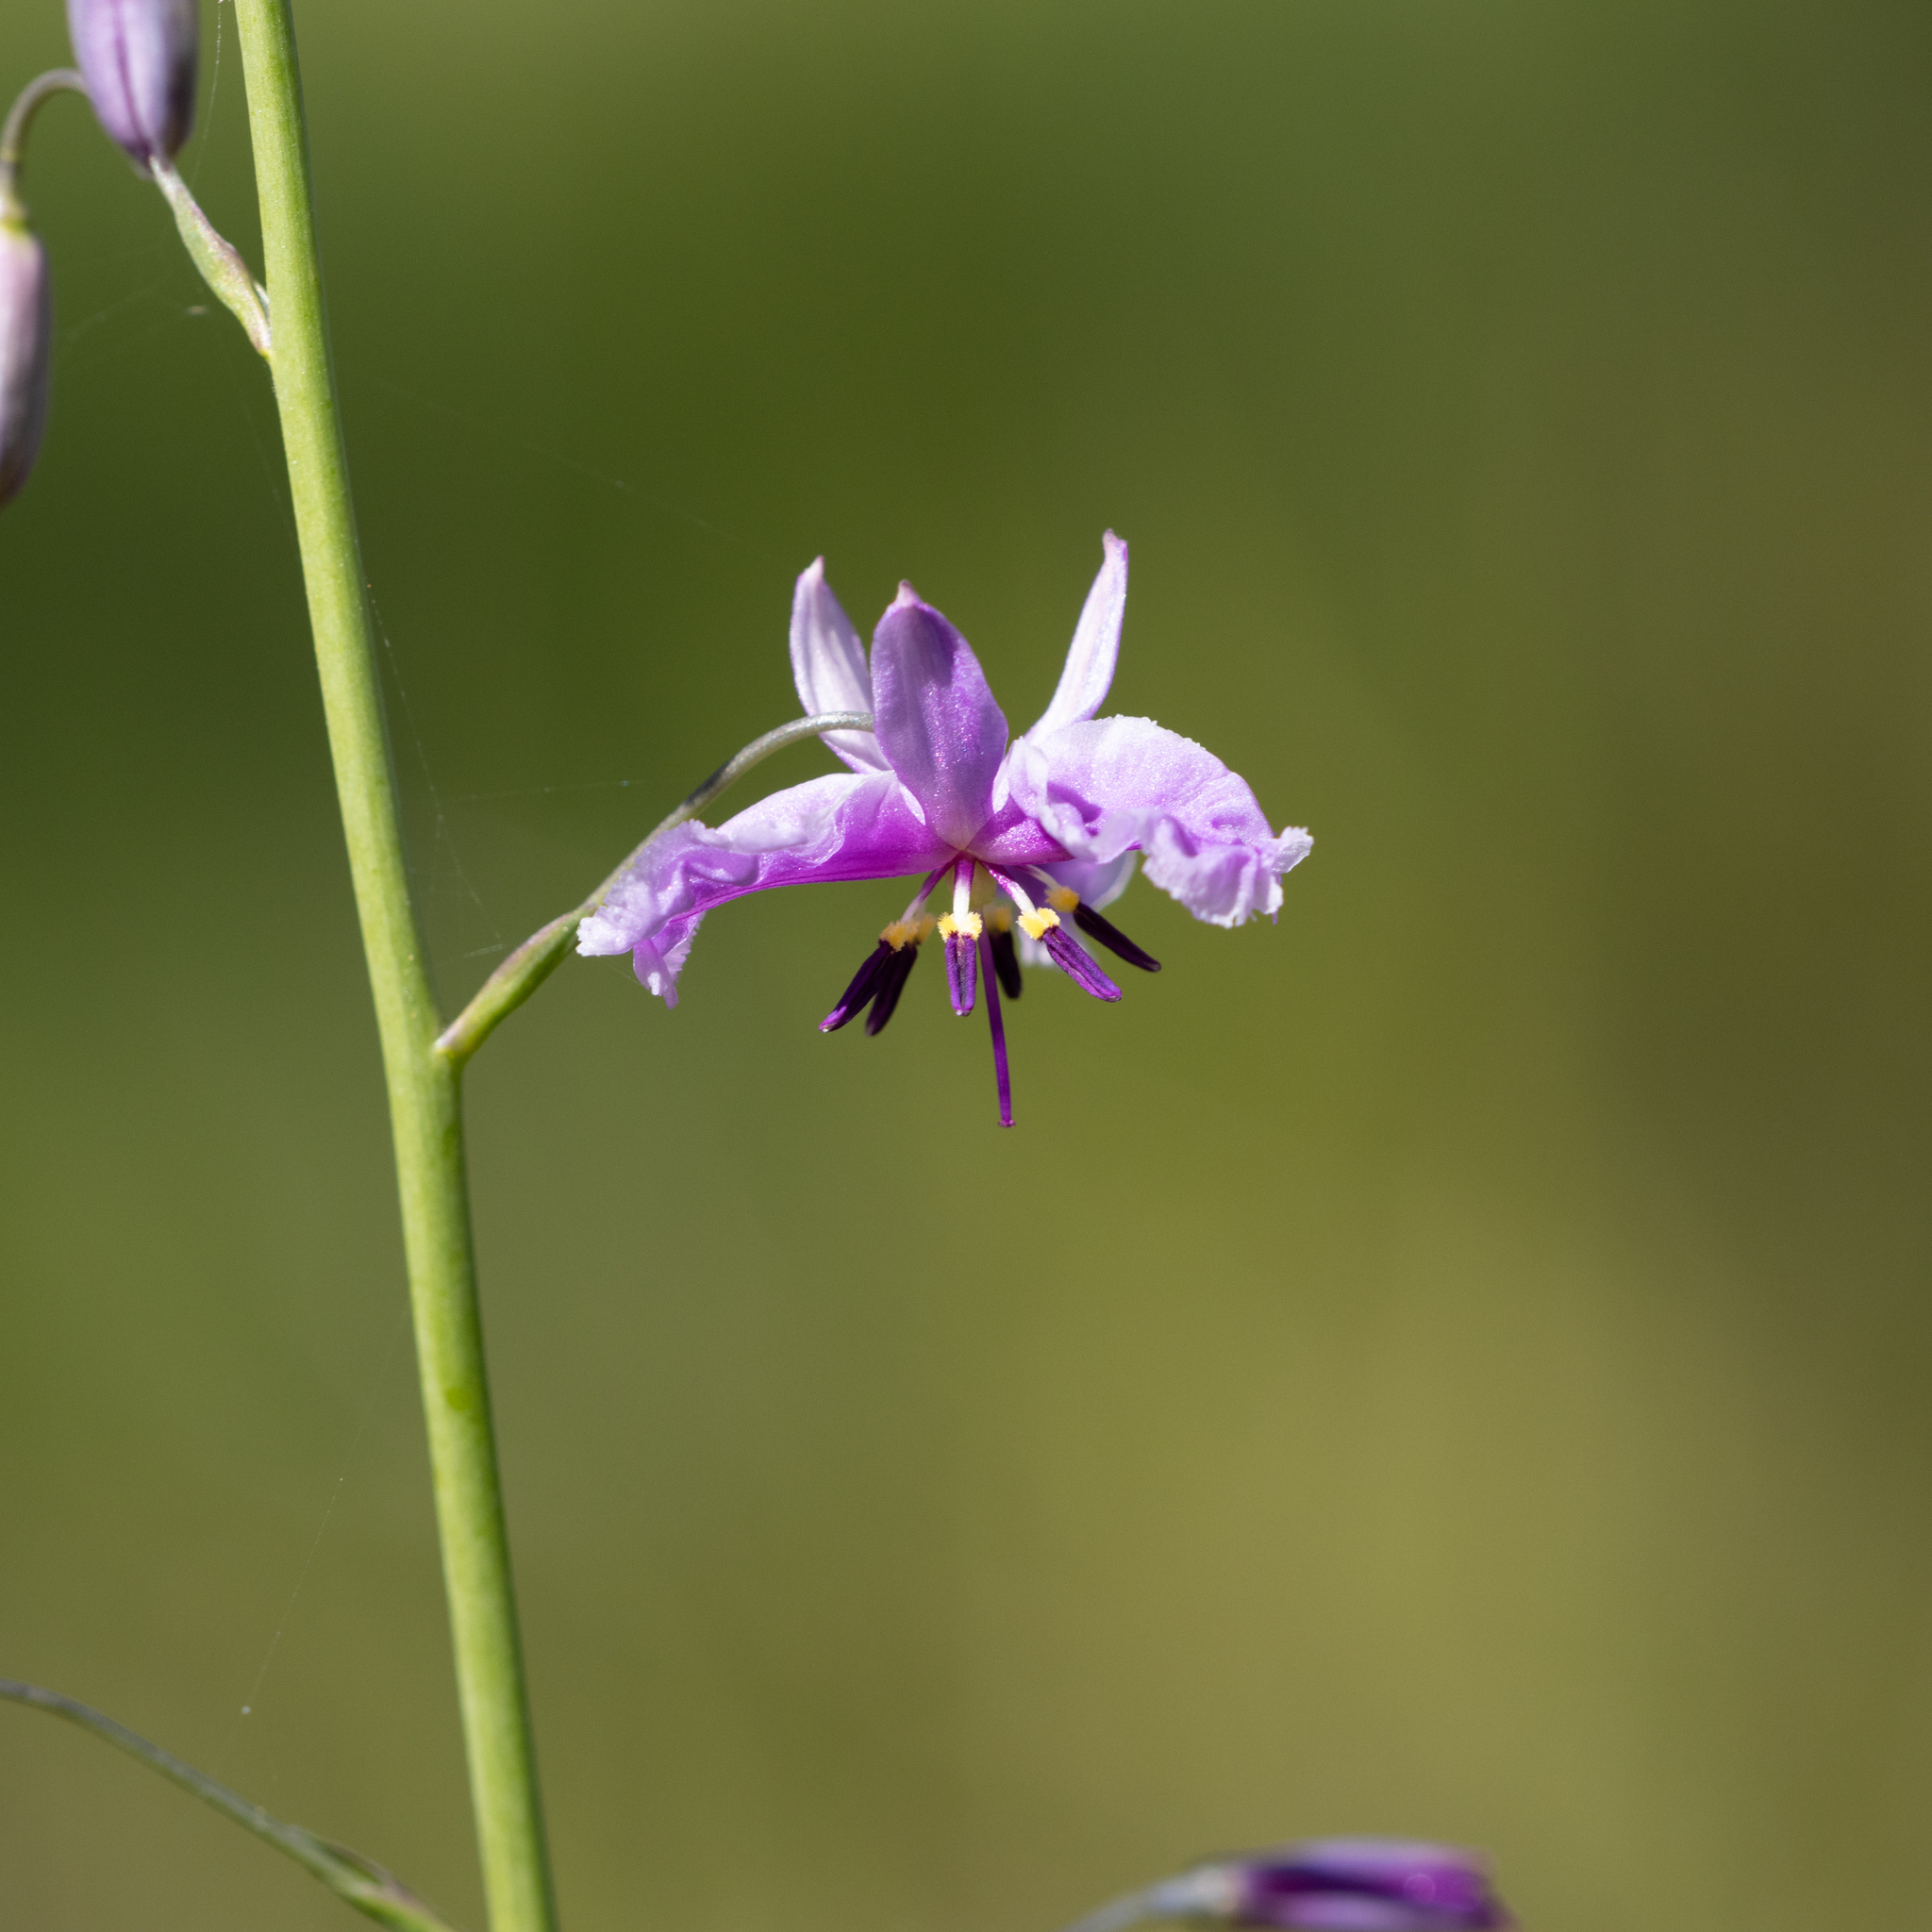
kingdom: Plantae
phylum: Tracheophyta
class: Liliopsida
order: Asparagales
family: Asparagaceae
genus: Arthropodium
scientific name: Arthropodium strictum
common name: Chocolate-lily
